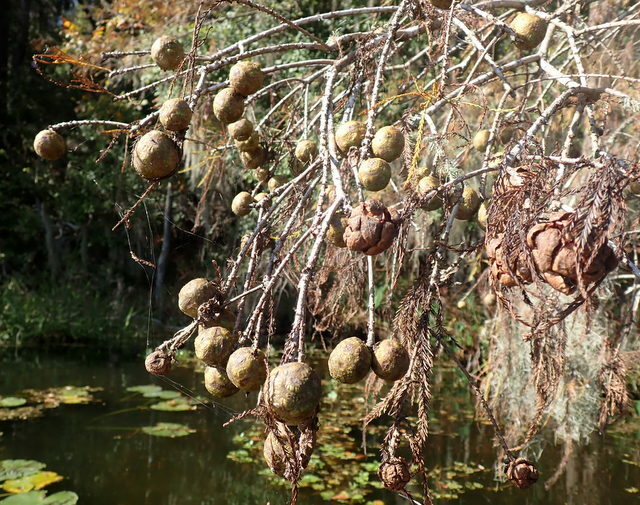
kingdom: Plantae
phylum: Tracheophyta
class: Pinopsida
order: Pinales
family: Cupressaceae
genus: Taxodium
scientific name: Taxodium distichum
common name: Bald cypress
